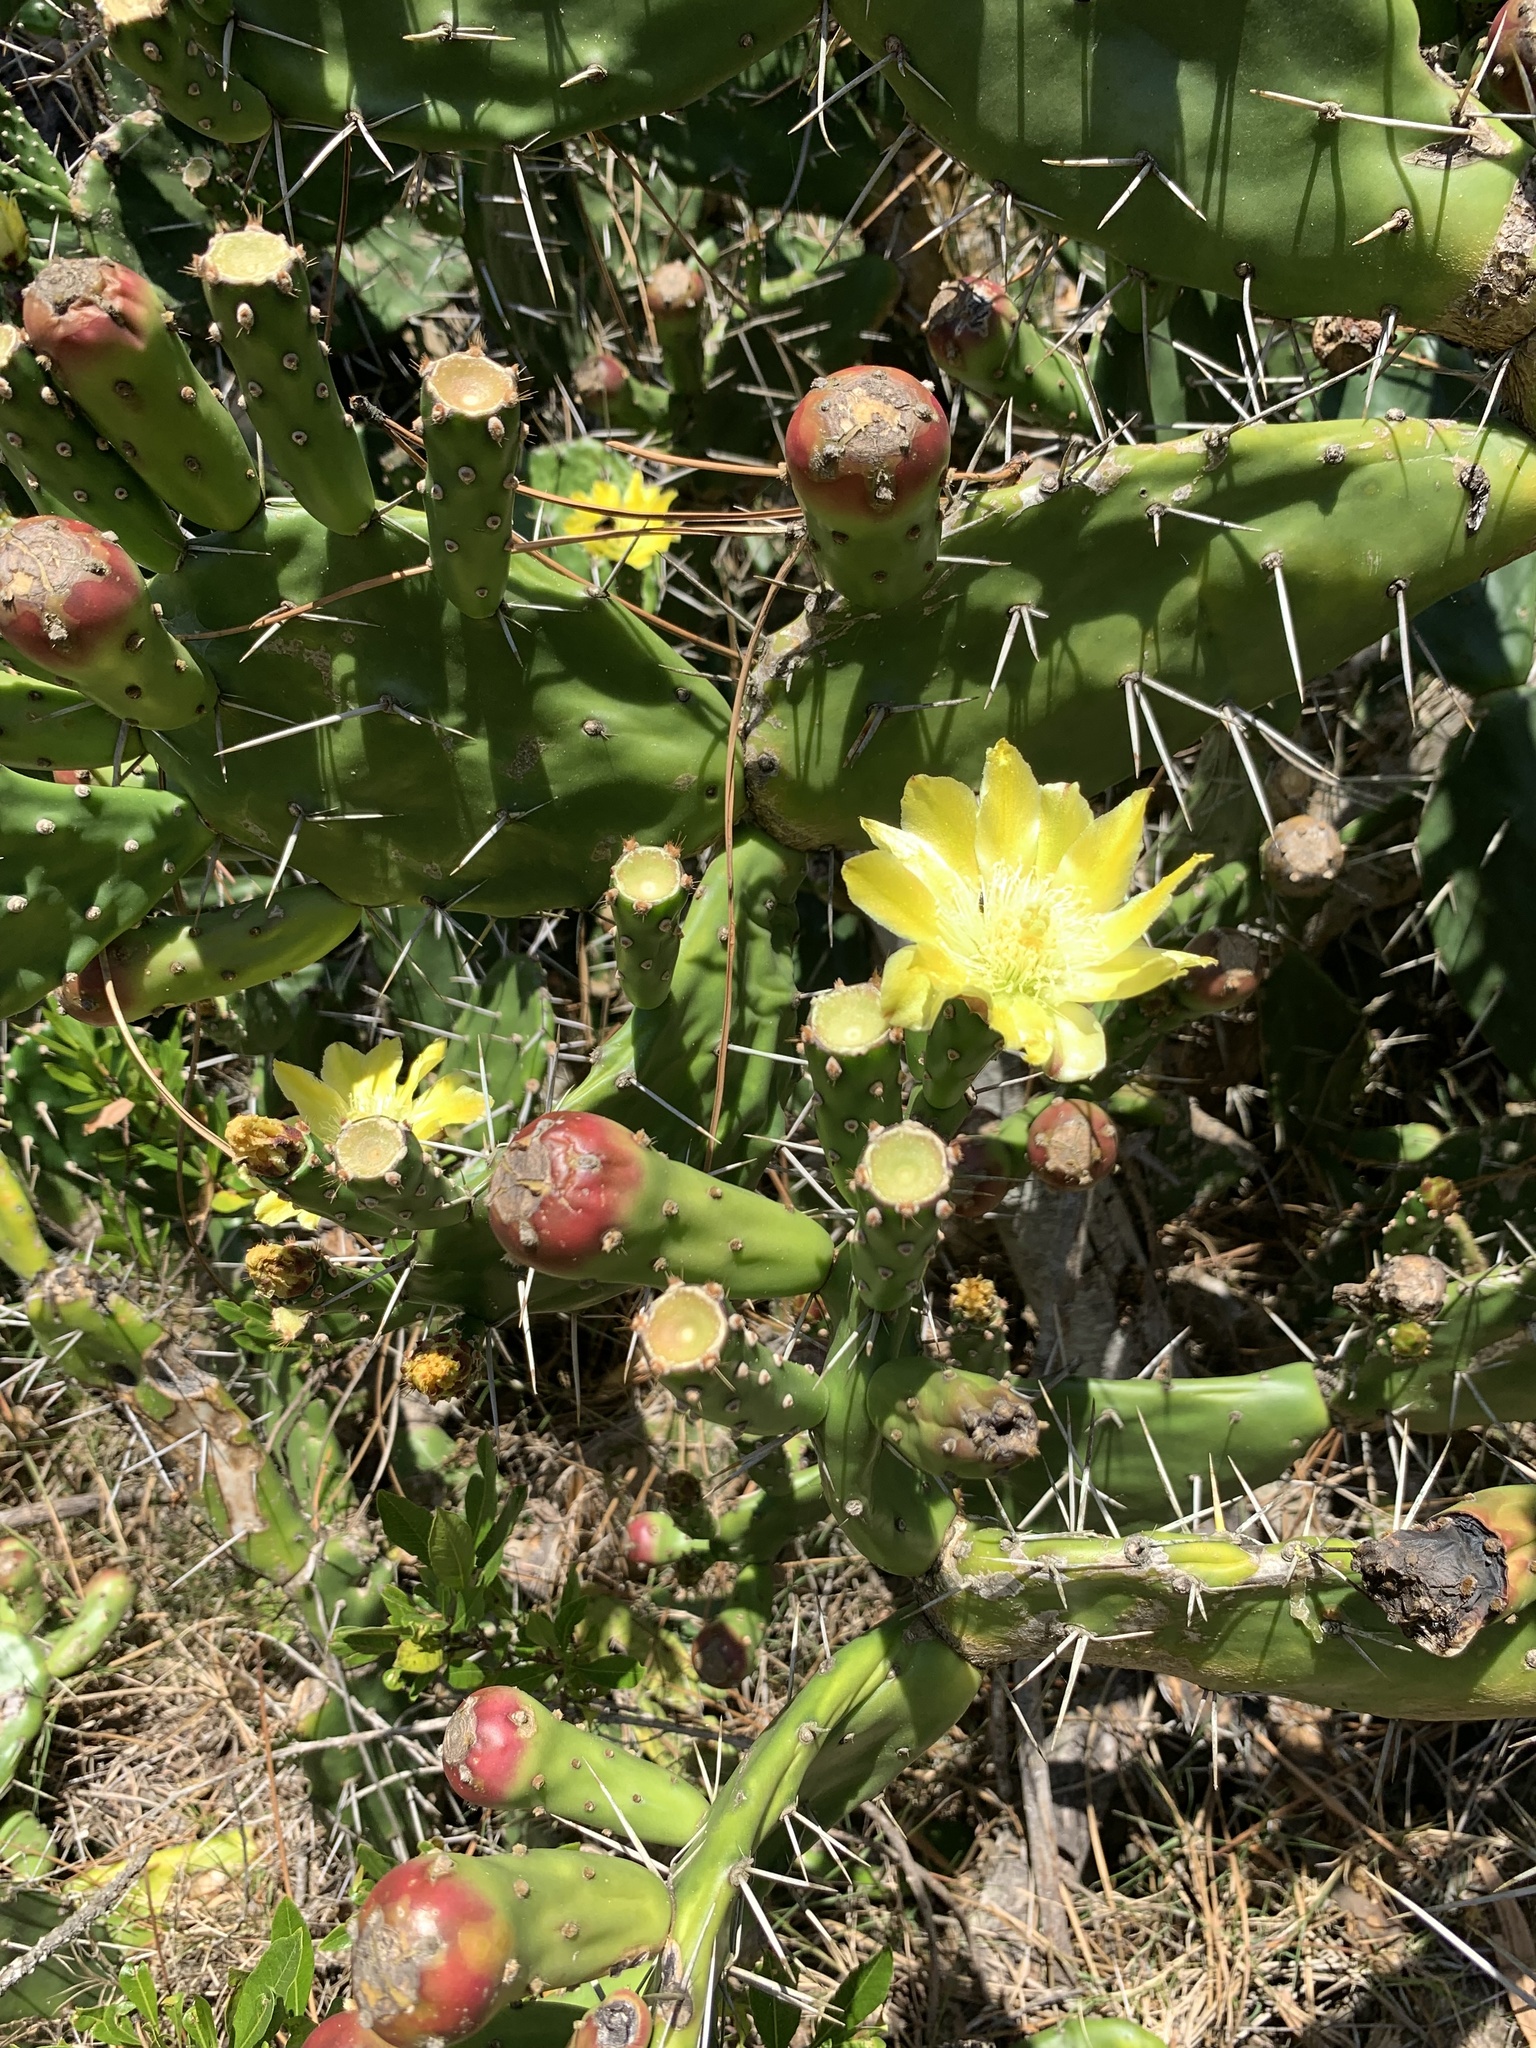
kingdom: Plantae
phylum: Tracheophyta
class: Magnoliopsida
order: Caryophyllales
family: Cactaceae
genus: Opuntia
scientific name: Opuntia arechavaletae
